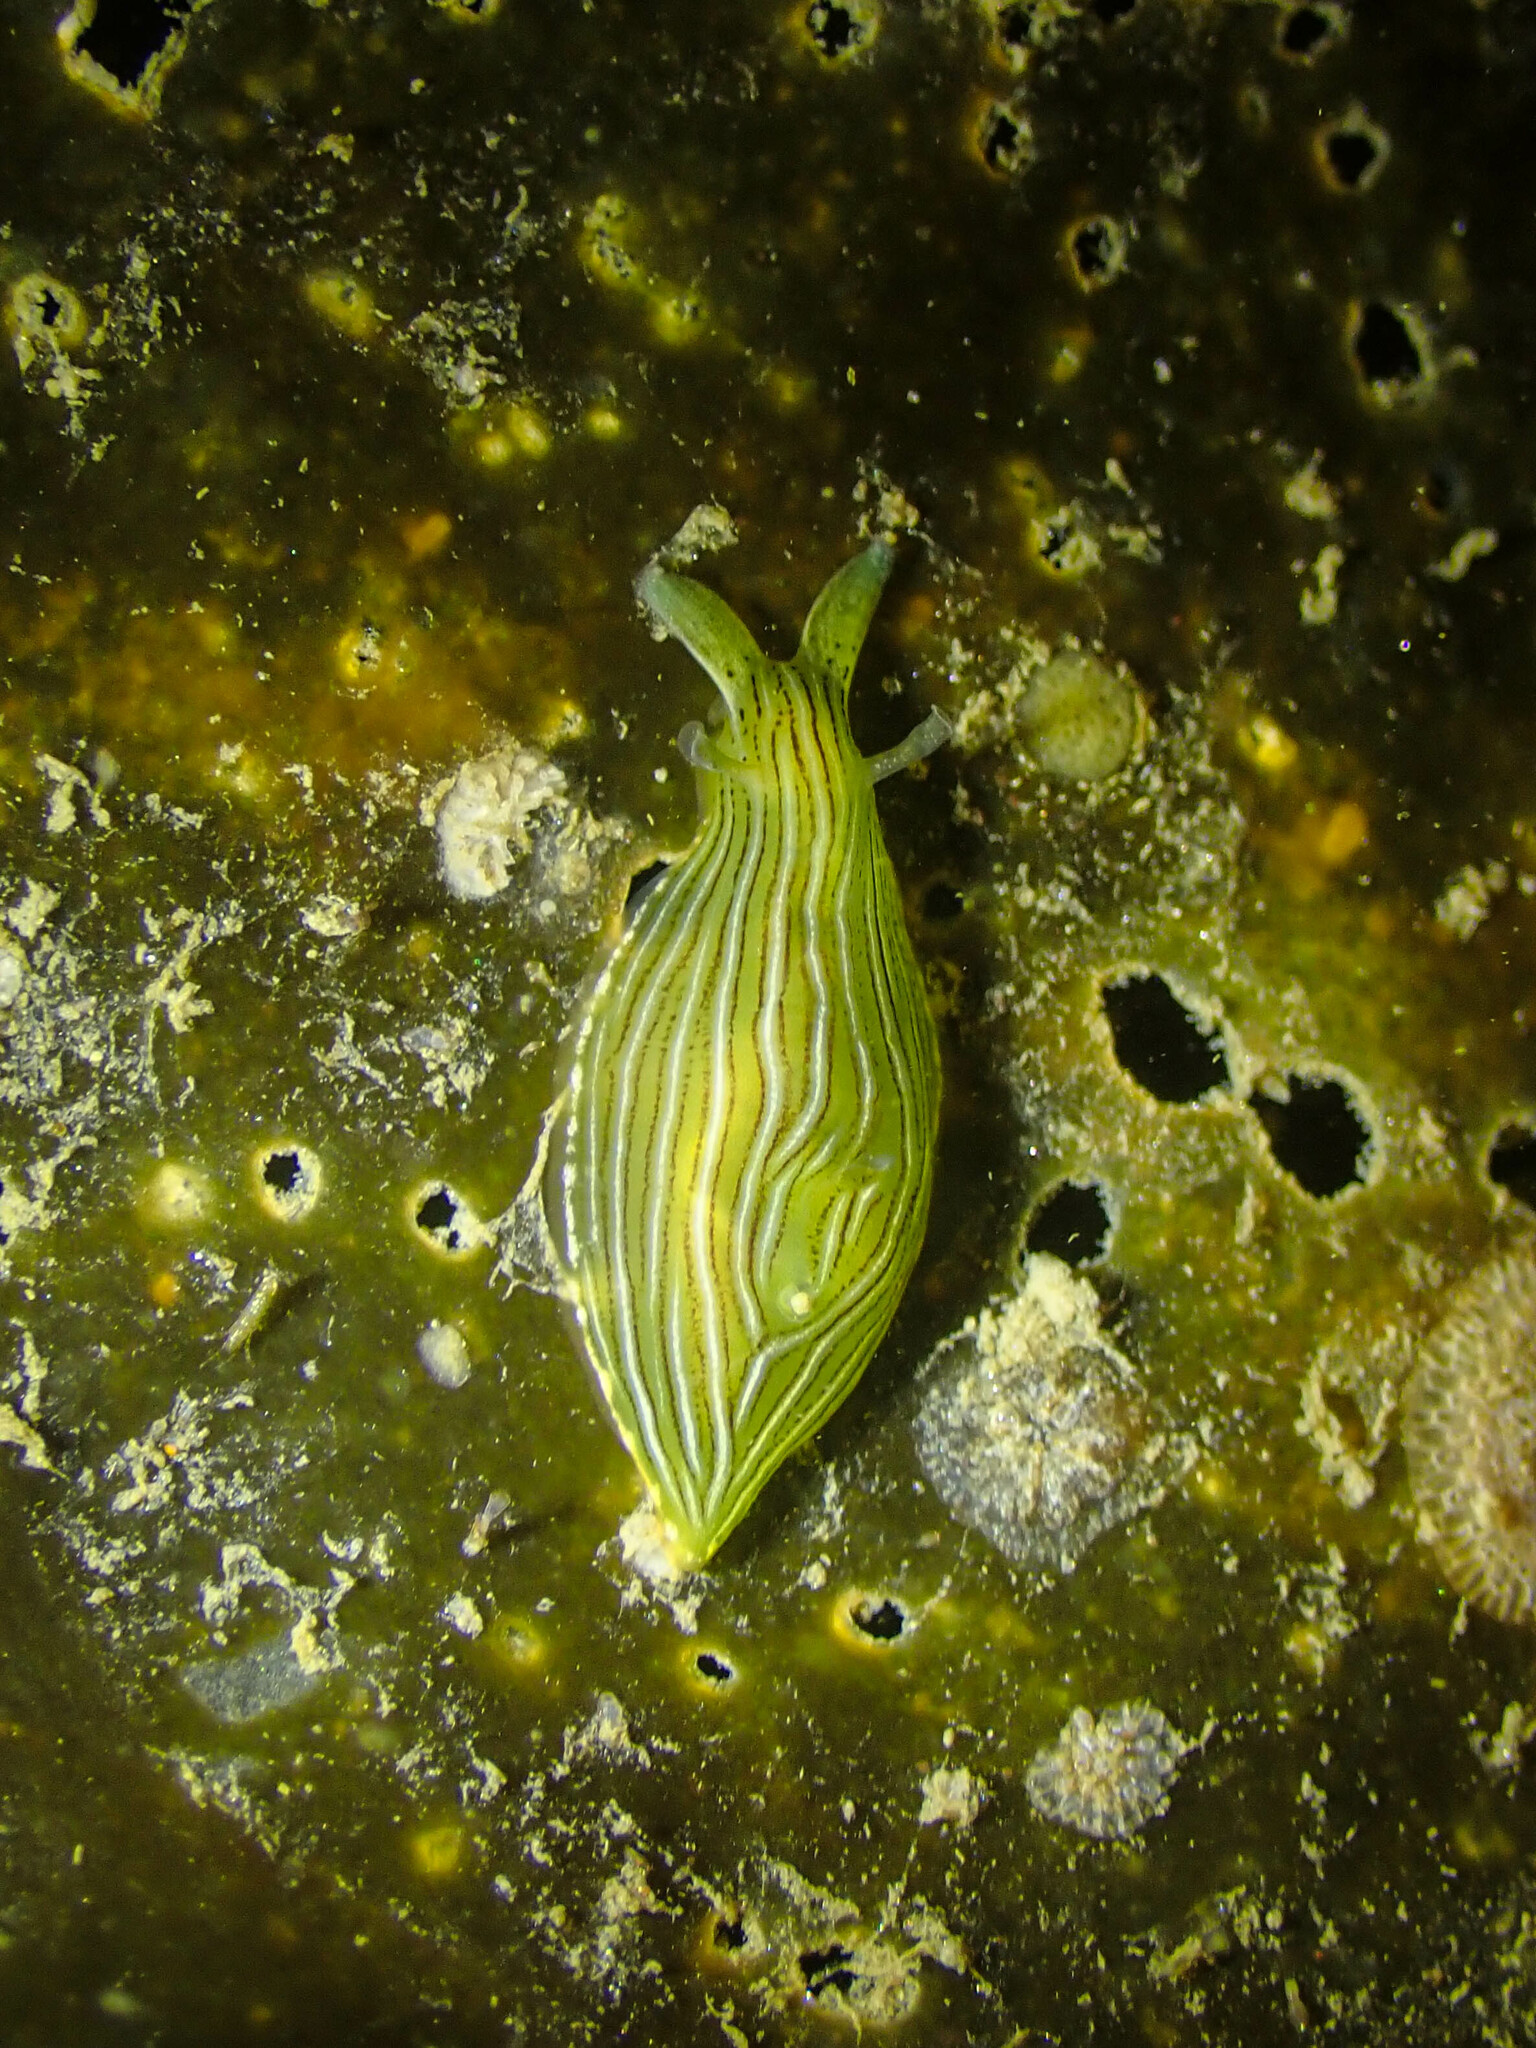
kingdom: Animalia
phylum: Mollusca
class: Gastropoda
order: Aplysiida
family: Aplysiidae
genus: Phyllaplysia
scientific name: Phyllaplysia taylori
